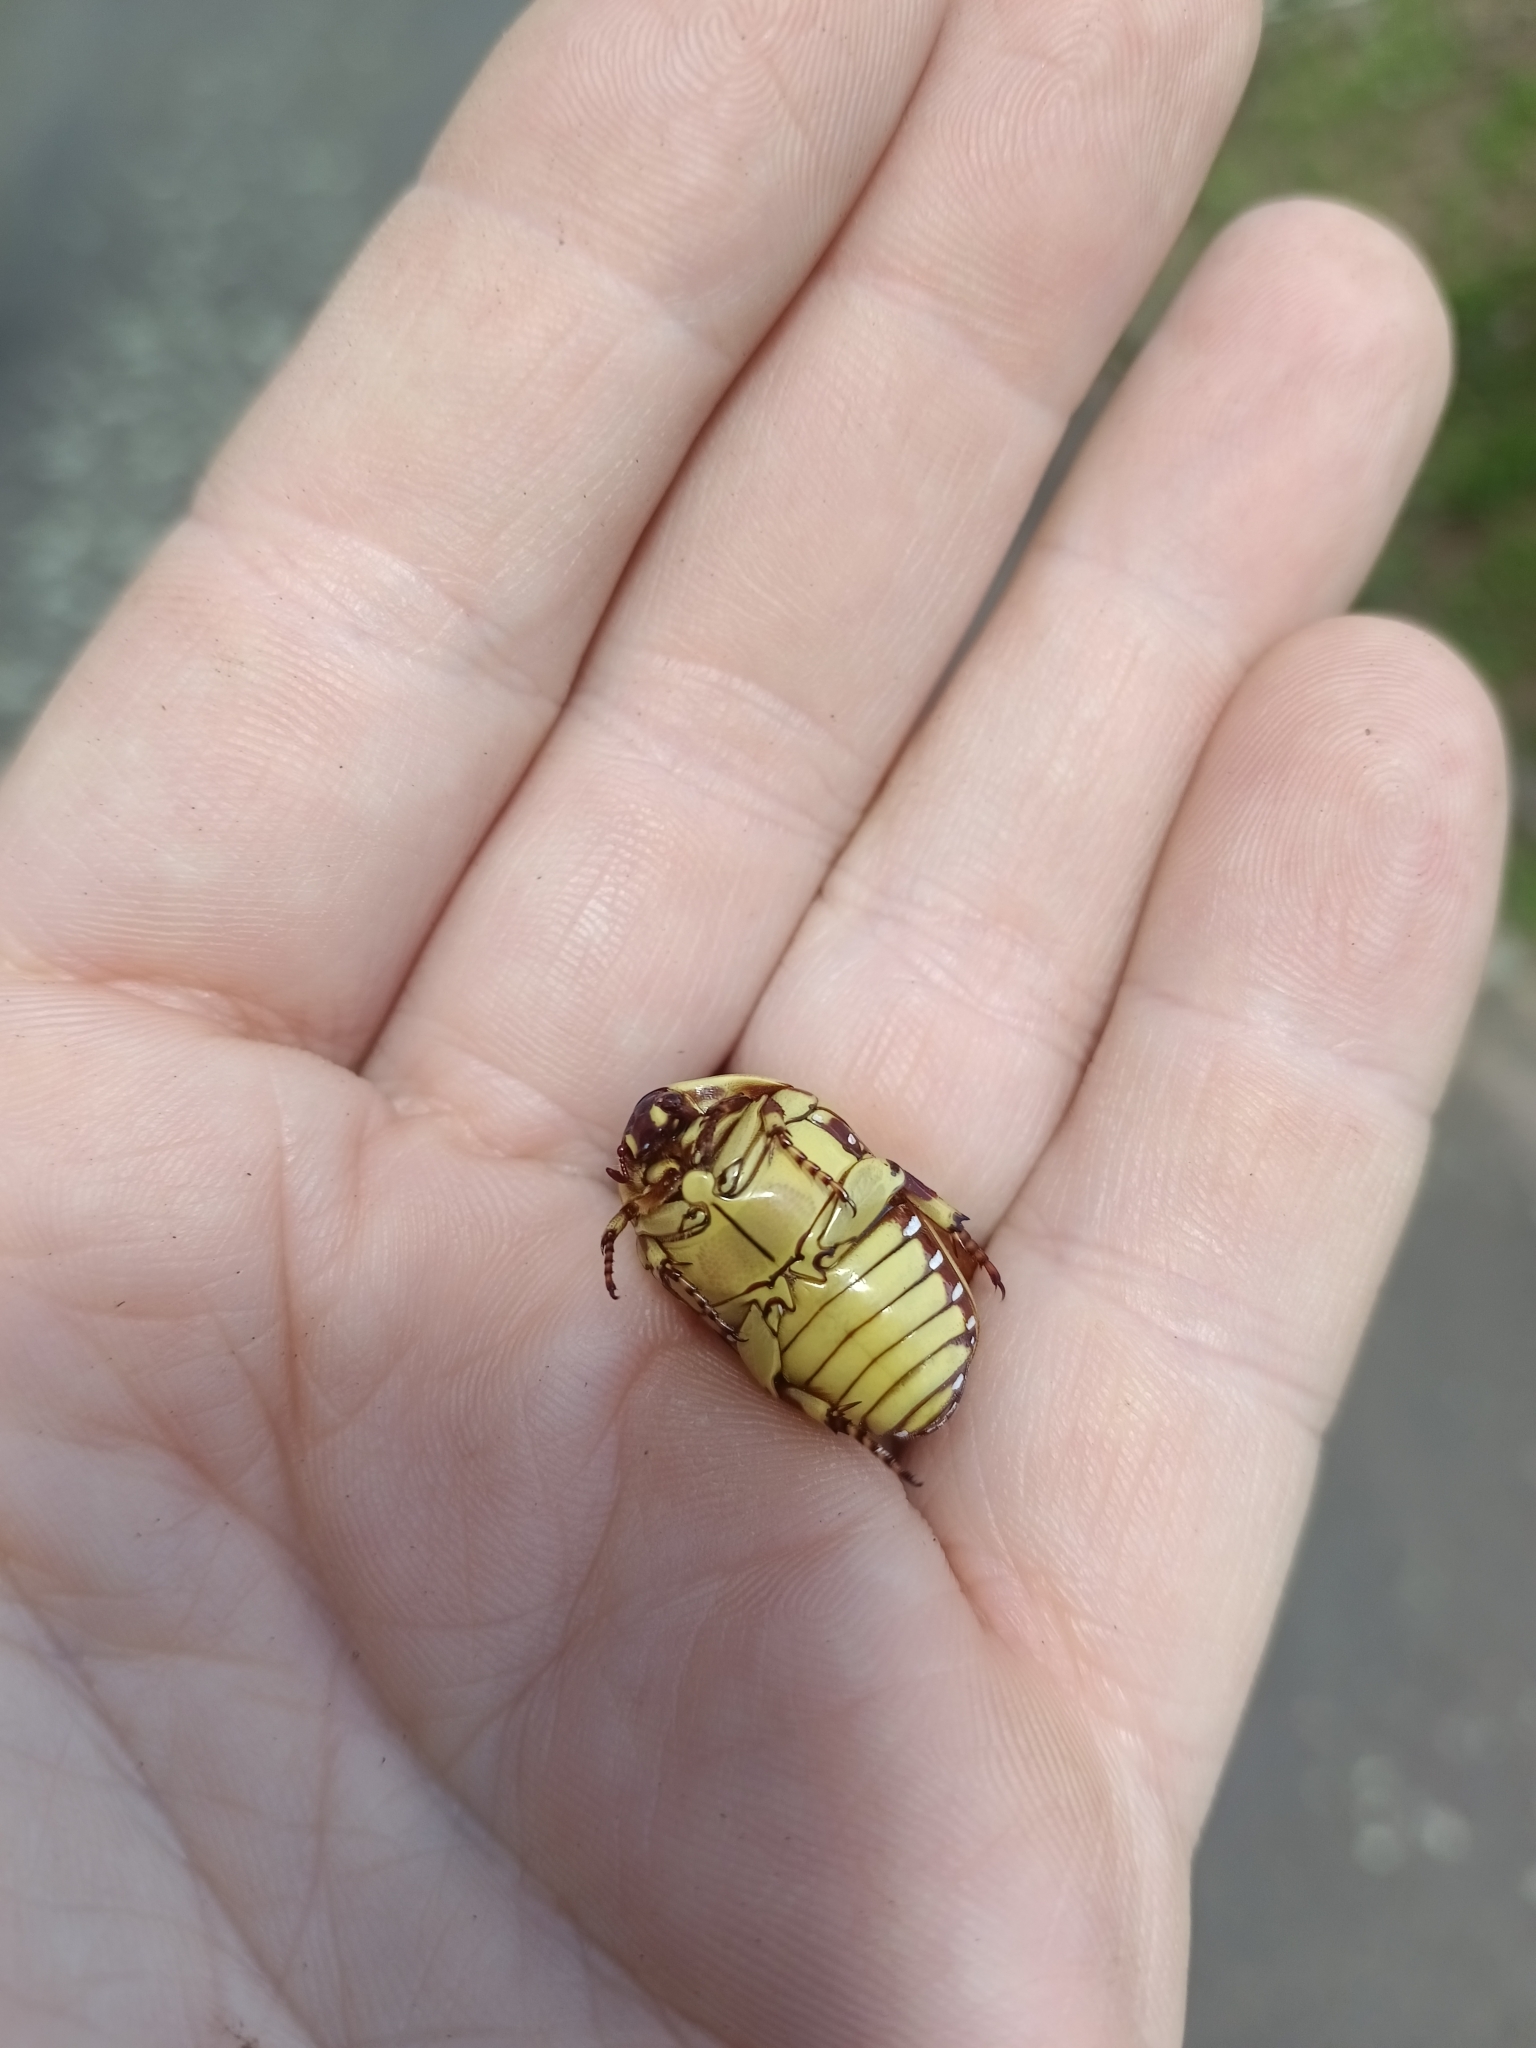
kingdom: Animalia
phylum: Arthropoda
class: Insecta
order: Coleoptera
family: Scarabaeidae
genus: Pachnoda
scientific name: Pachnoda sinuata
